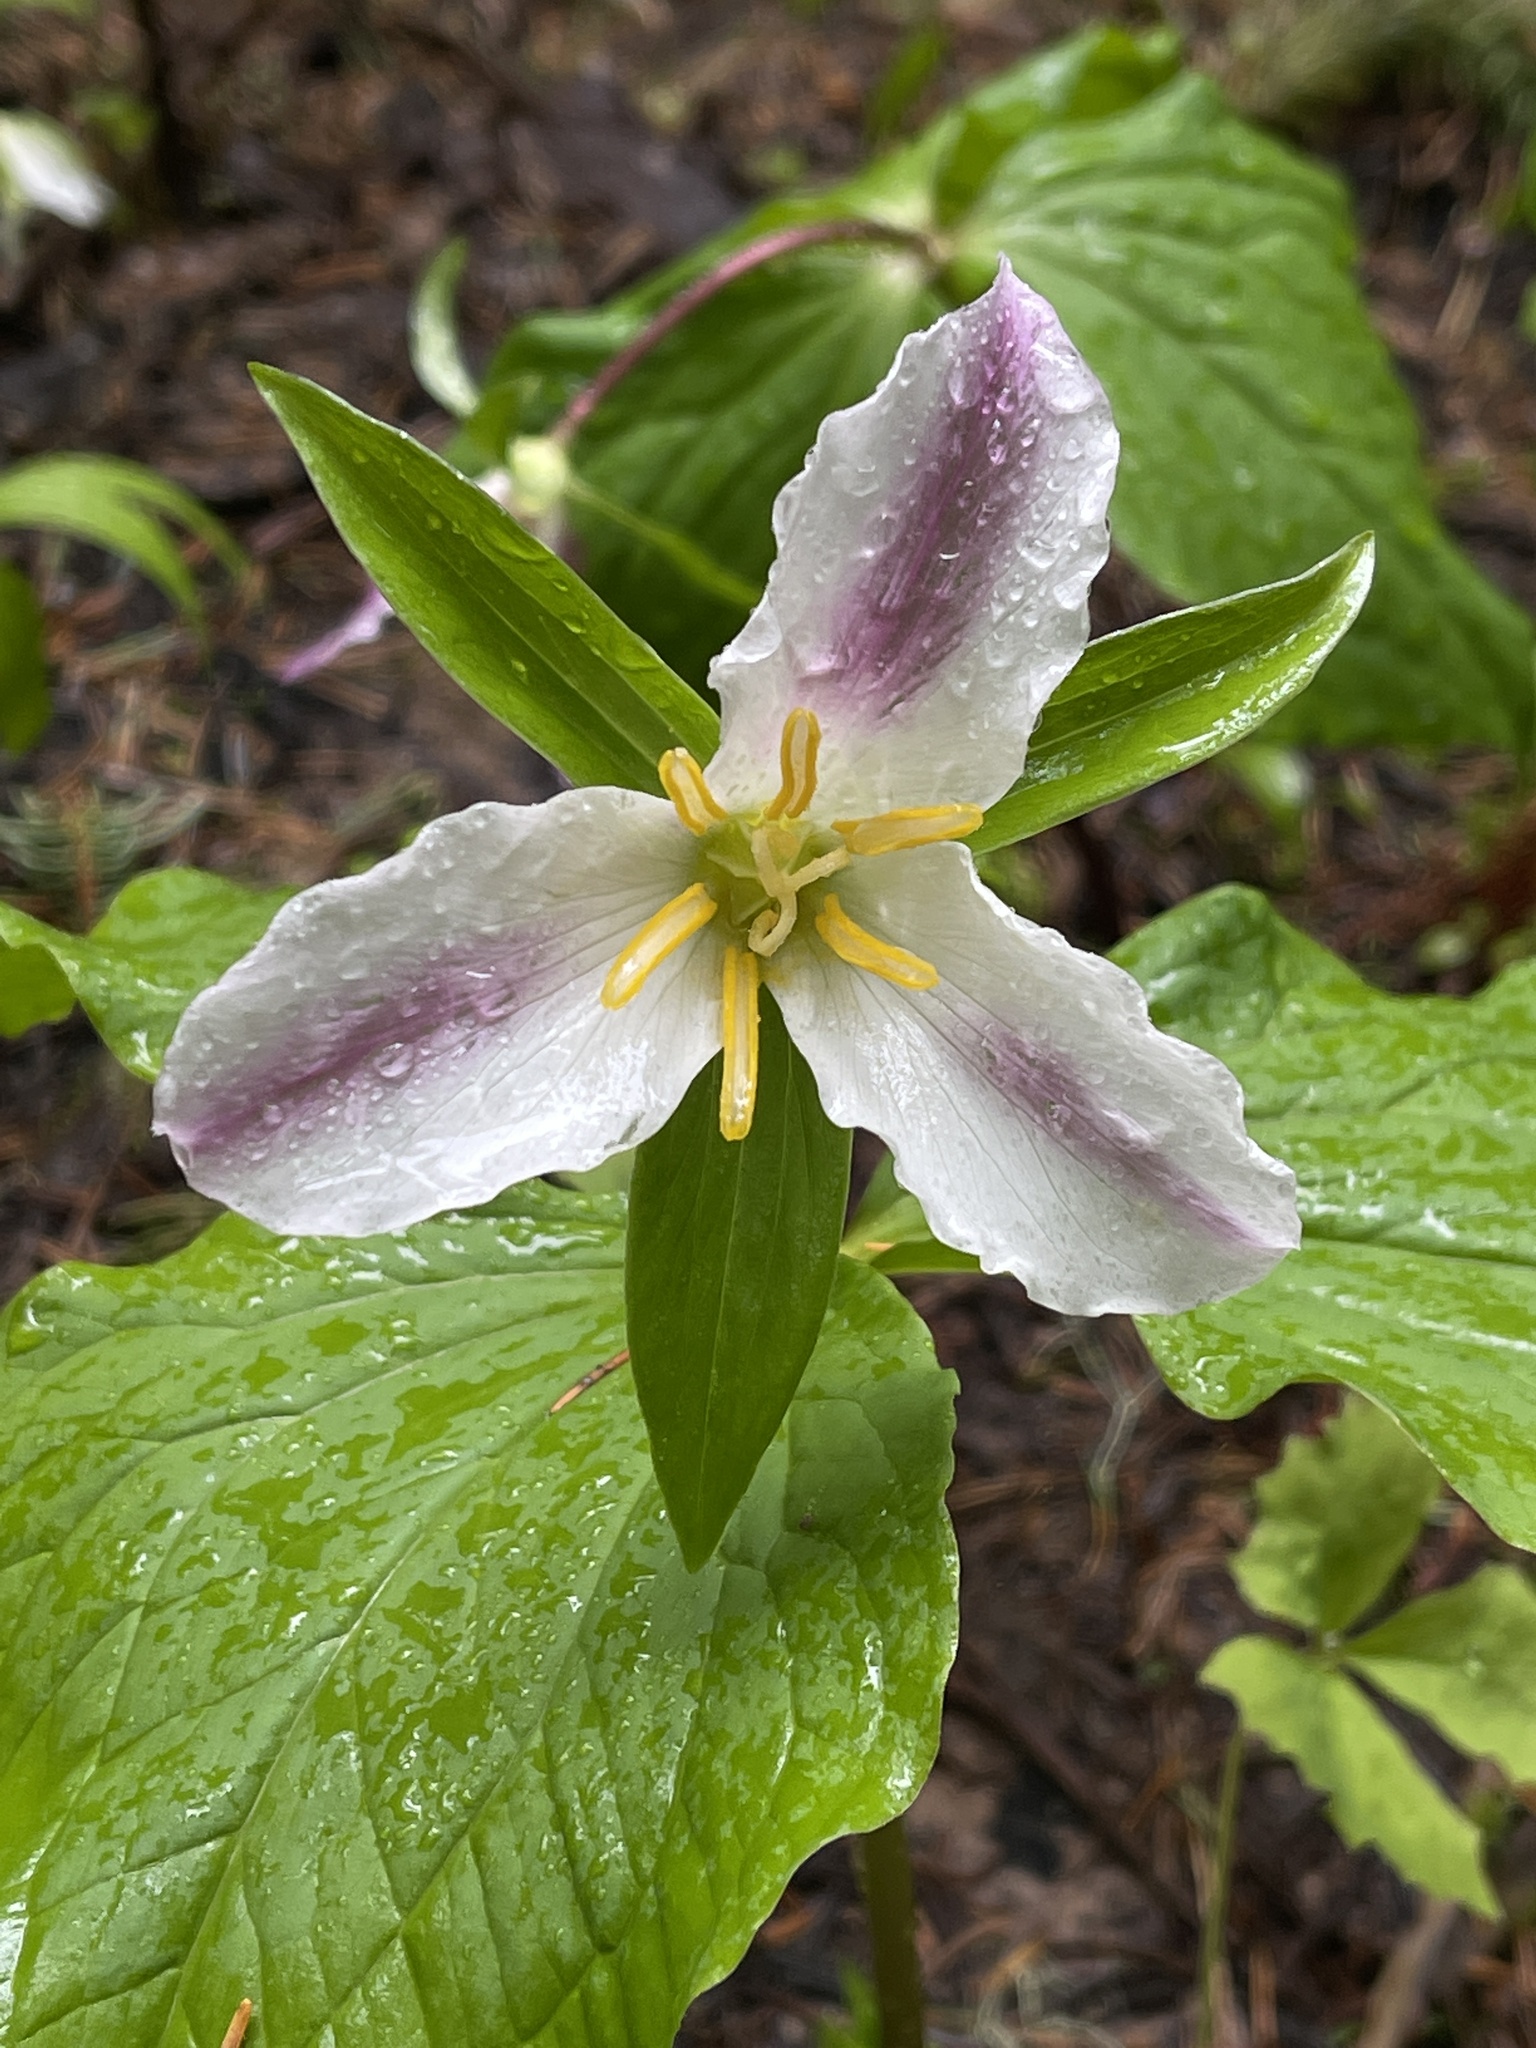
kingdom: Plantae
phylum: Tracheophyta
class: Liliopsida
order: Liliales
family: Melanthiaceae
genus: Trillium
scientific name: Trillium ovatum
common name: Pacific trillium
